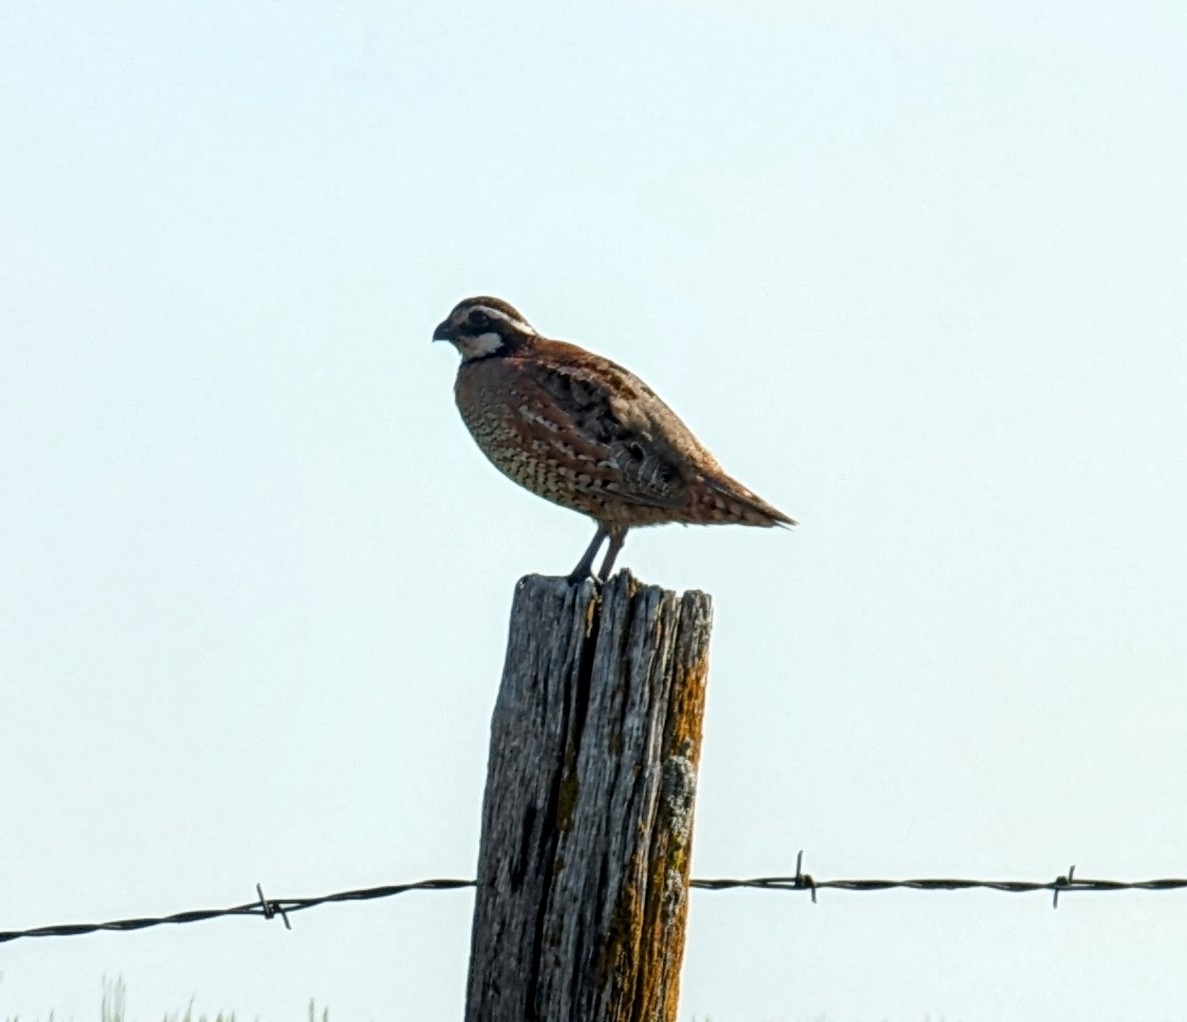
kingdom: Animalia
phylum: Chordata
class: Aves
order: Galliformes
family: Odontophoridae
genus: Colinus
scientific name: Colinus virginianus
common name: Northern bobwhite
